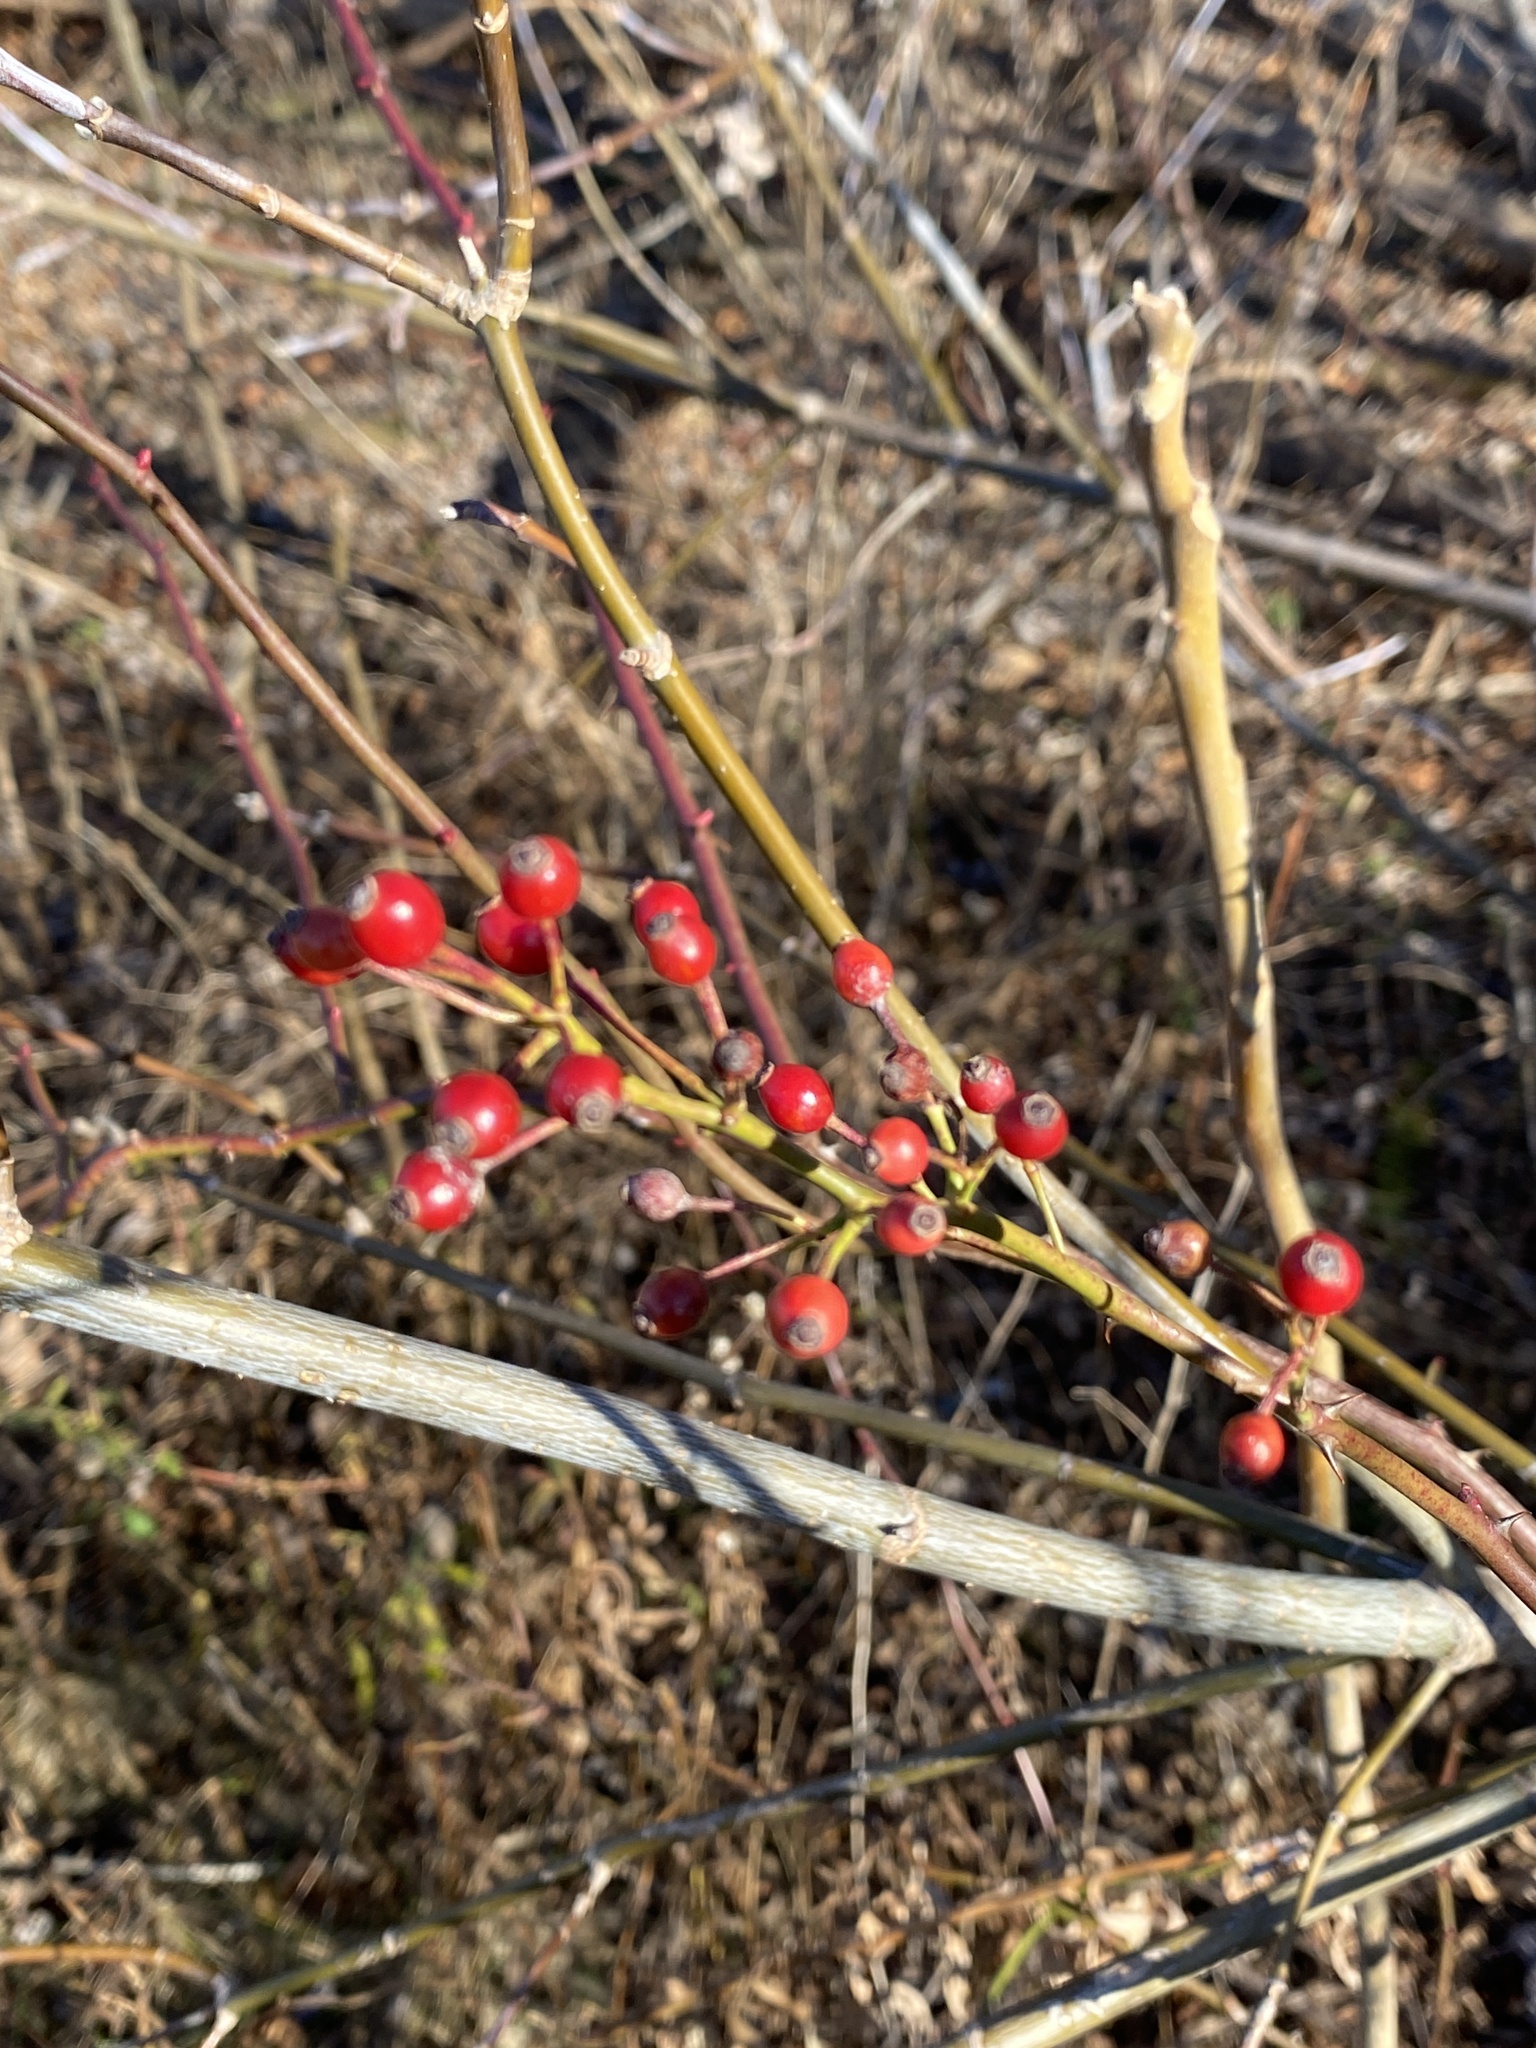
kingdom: Plantae
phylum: Tracheophyta
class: Magnoliopsida
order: Rosales
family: Rosaceae
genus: Rosa
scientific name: Rosa multiflora
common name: Multiflora rose
